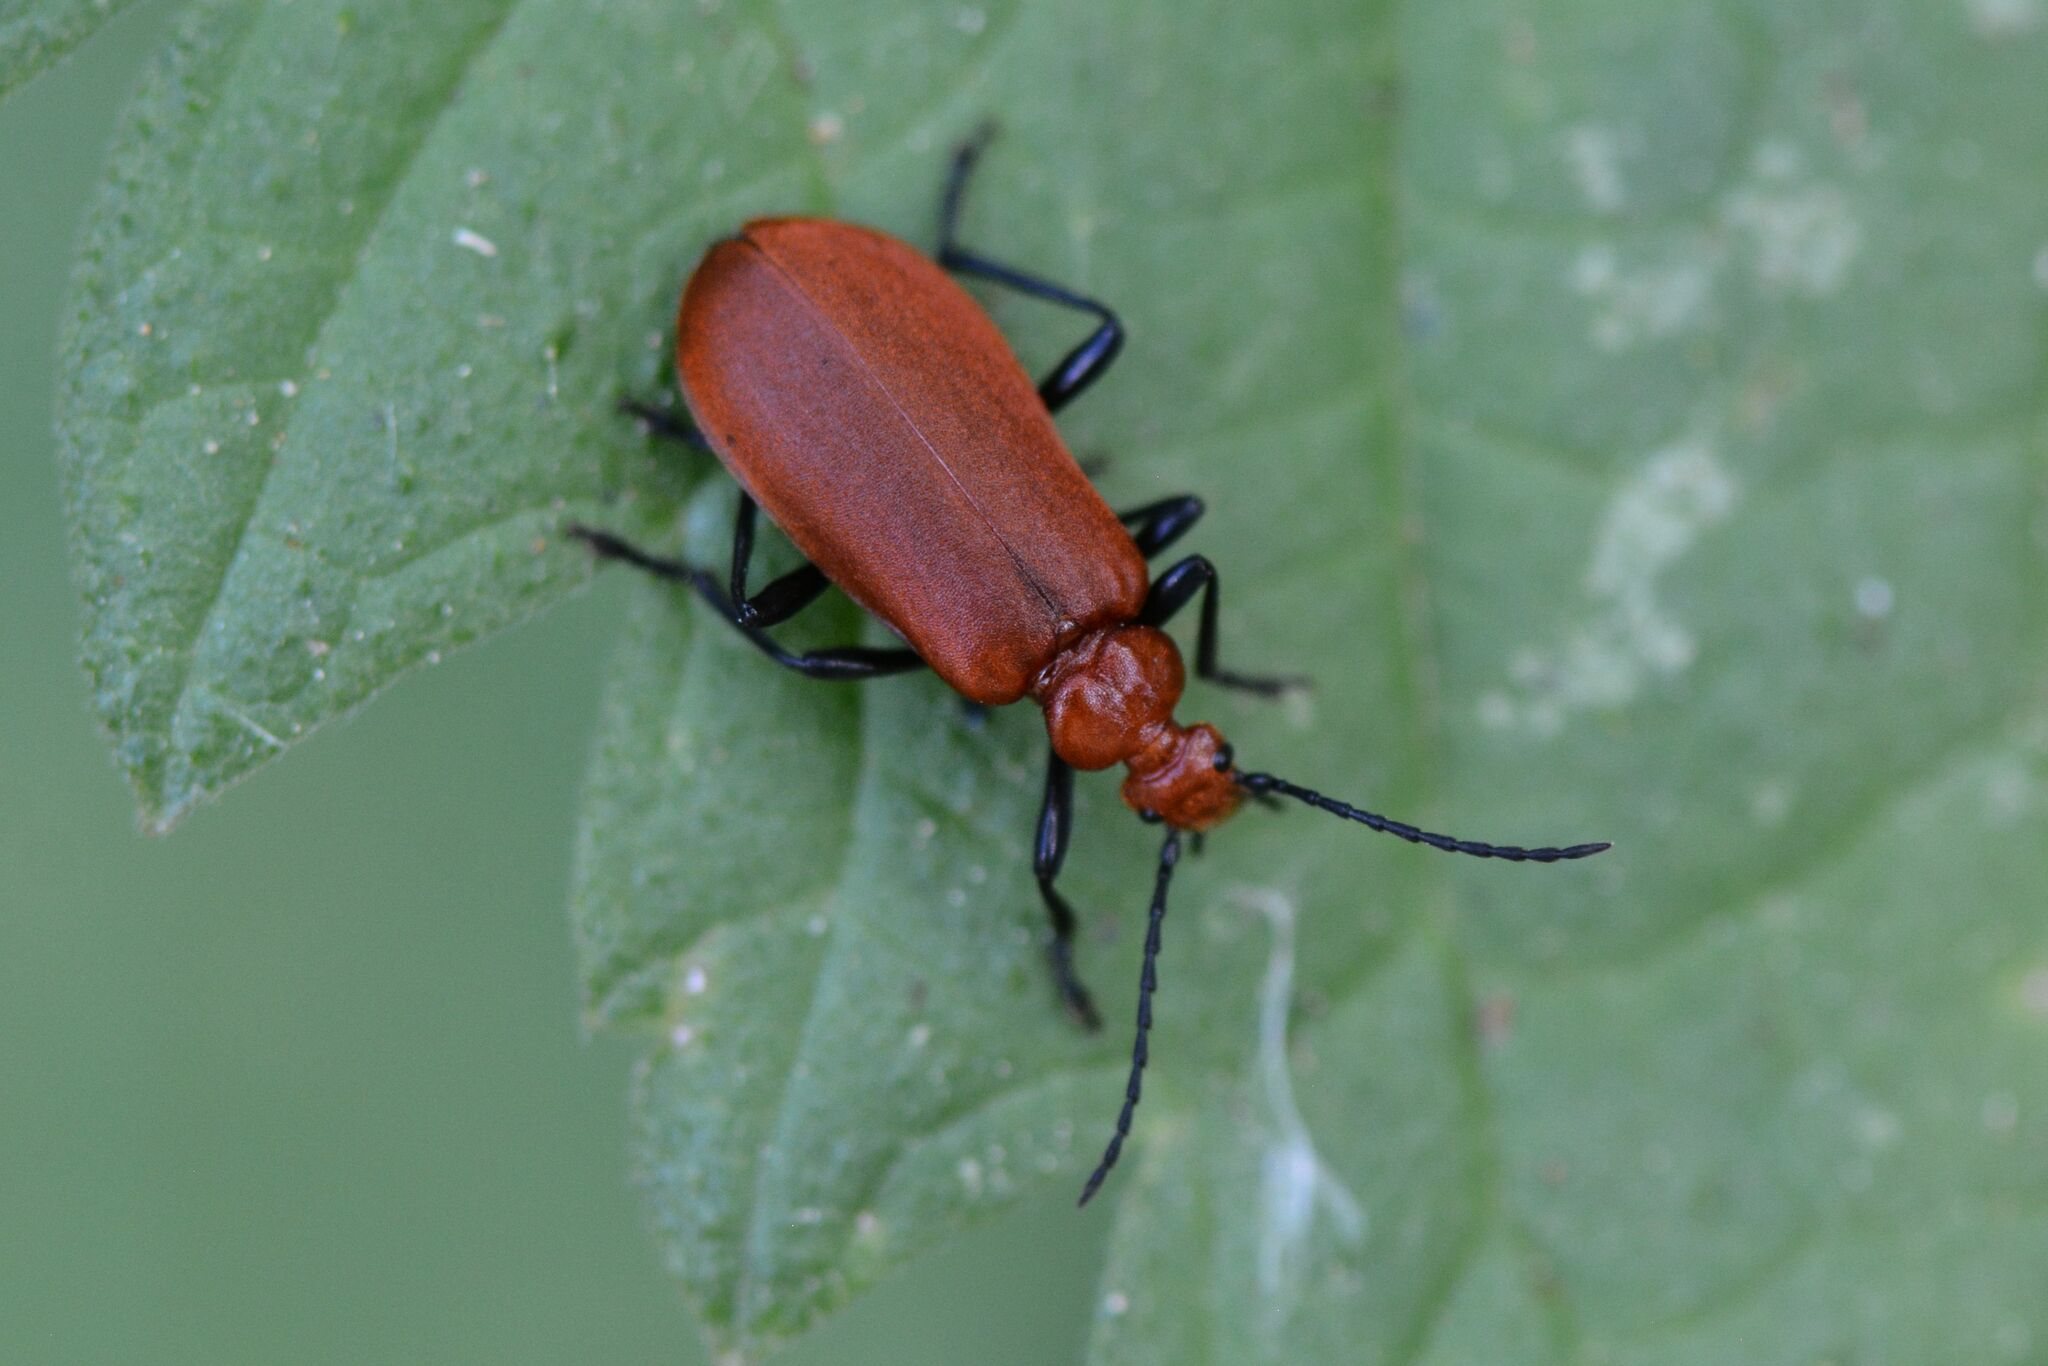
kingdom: Animalia
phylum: Arthropoda
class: Insecta
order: Coleoptera
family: Pyrochroidae
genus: Pyrochroa
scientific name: Pyrochroa serraticornis
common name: Red-headed cardinal beetle
